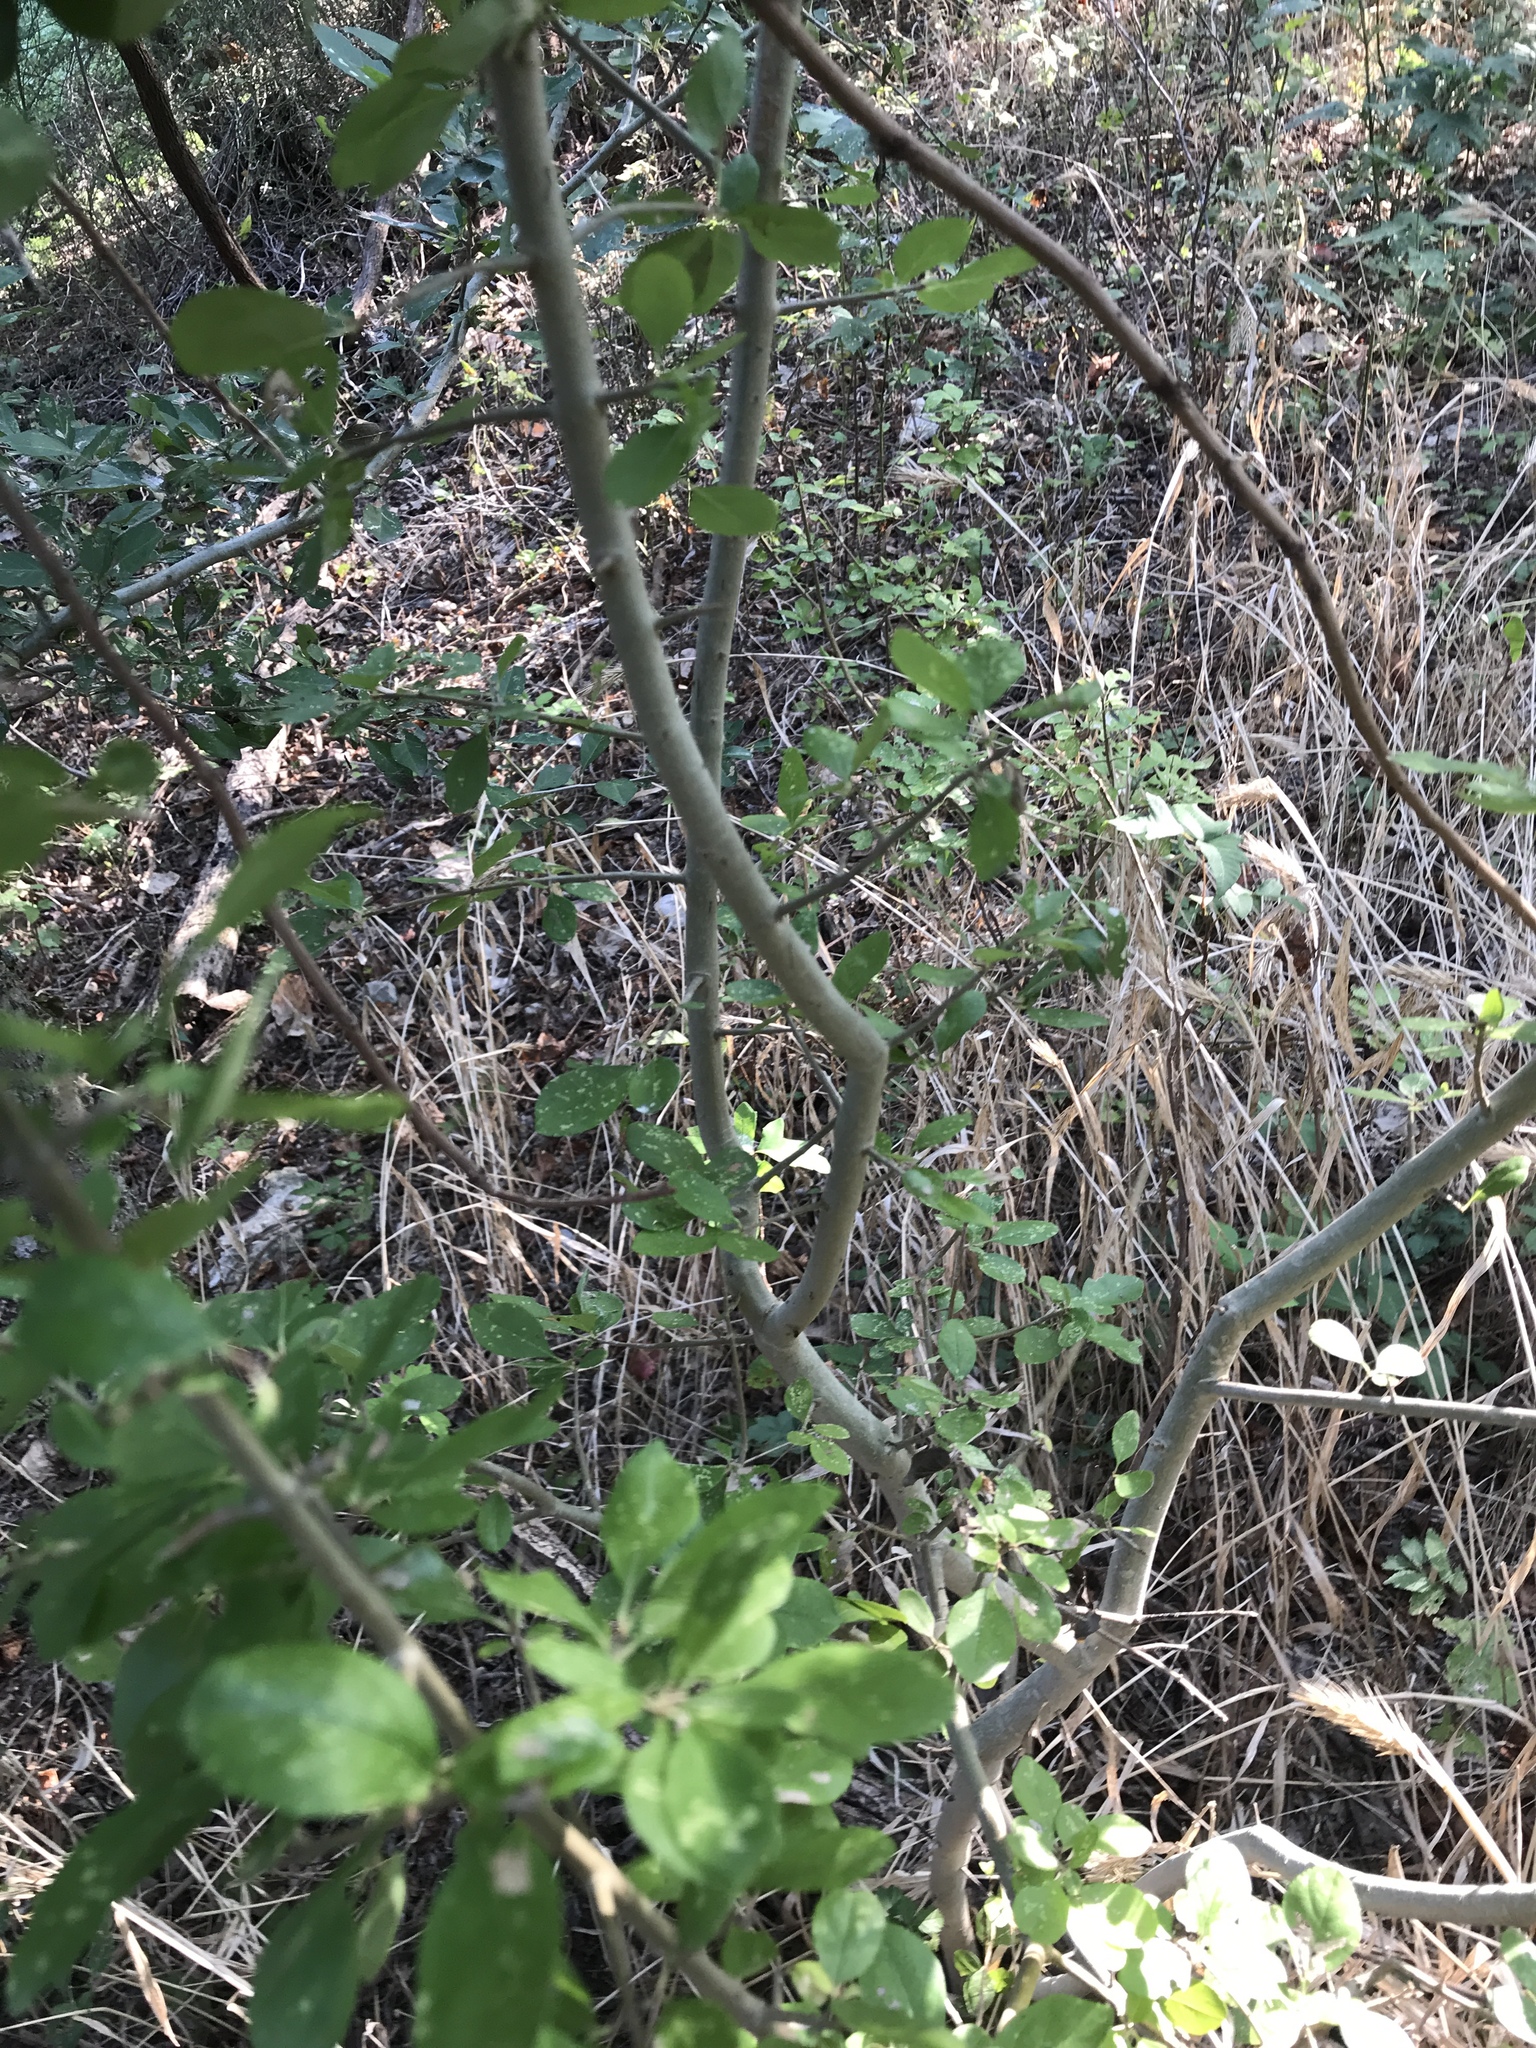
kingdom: Plantae
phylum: Tracheophyta
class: Magnoliopsida
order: Lamiales
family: Oleaceae
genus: Forestiera
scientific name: Forestiera pubescens
